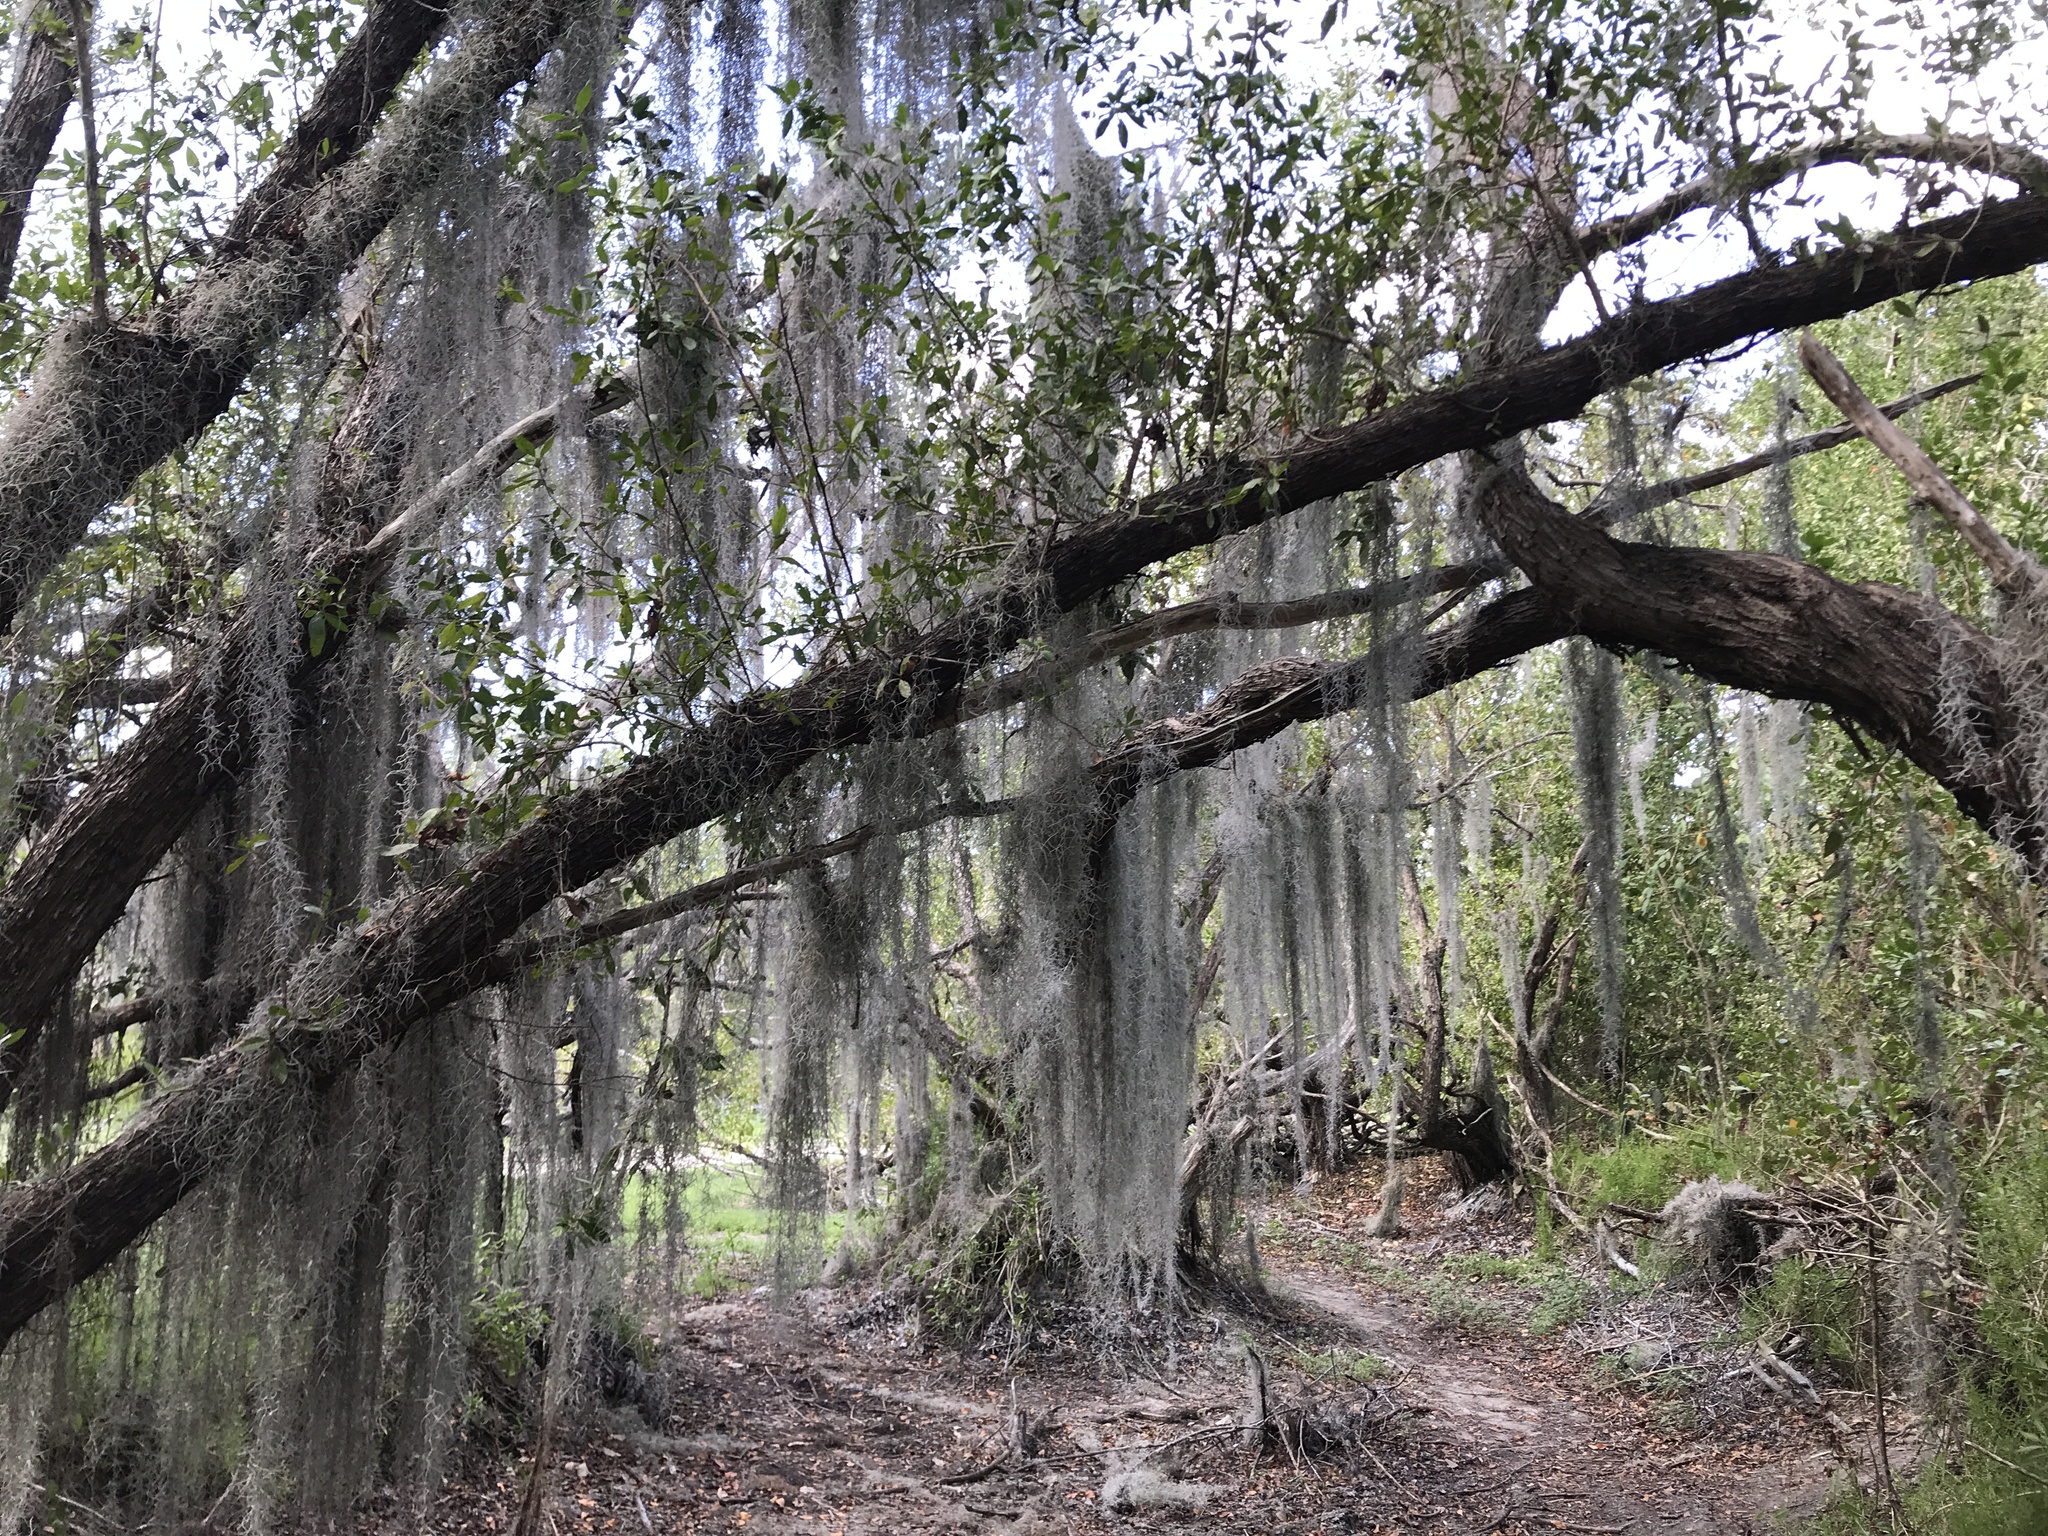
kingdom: Plantae
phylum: Tracheophyta
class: Liliopsida
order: Poales
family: Bromeliaceae
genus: Tillandsia
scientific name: Tillandsia usneoides
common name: Spanish moss
